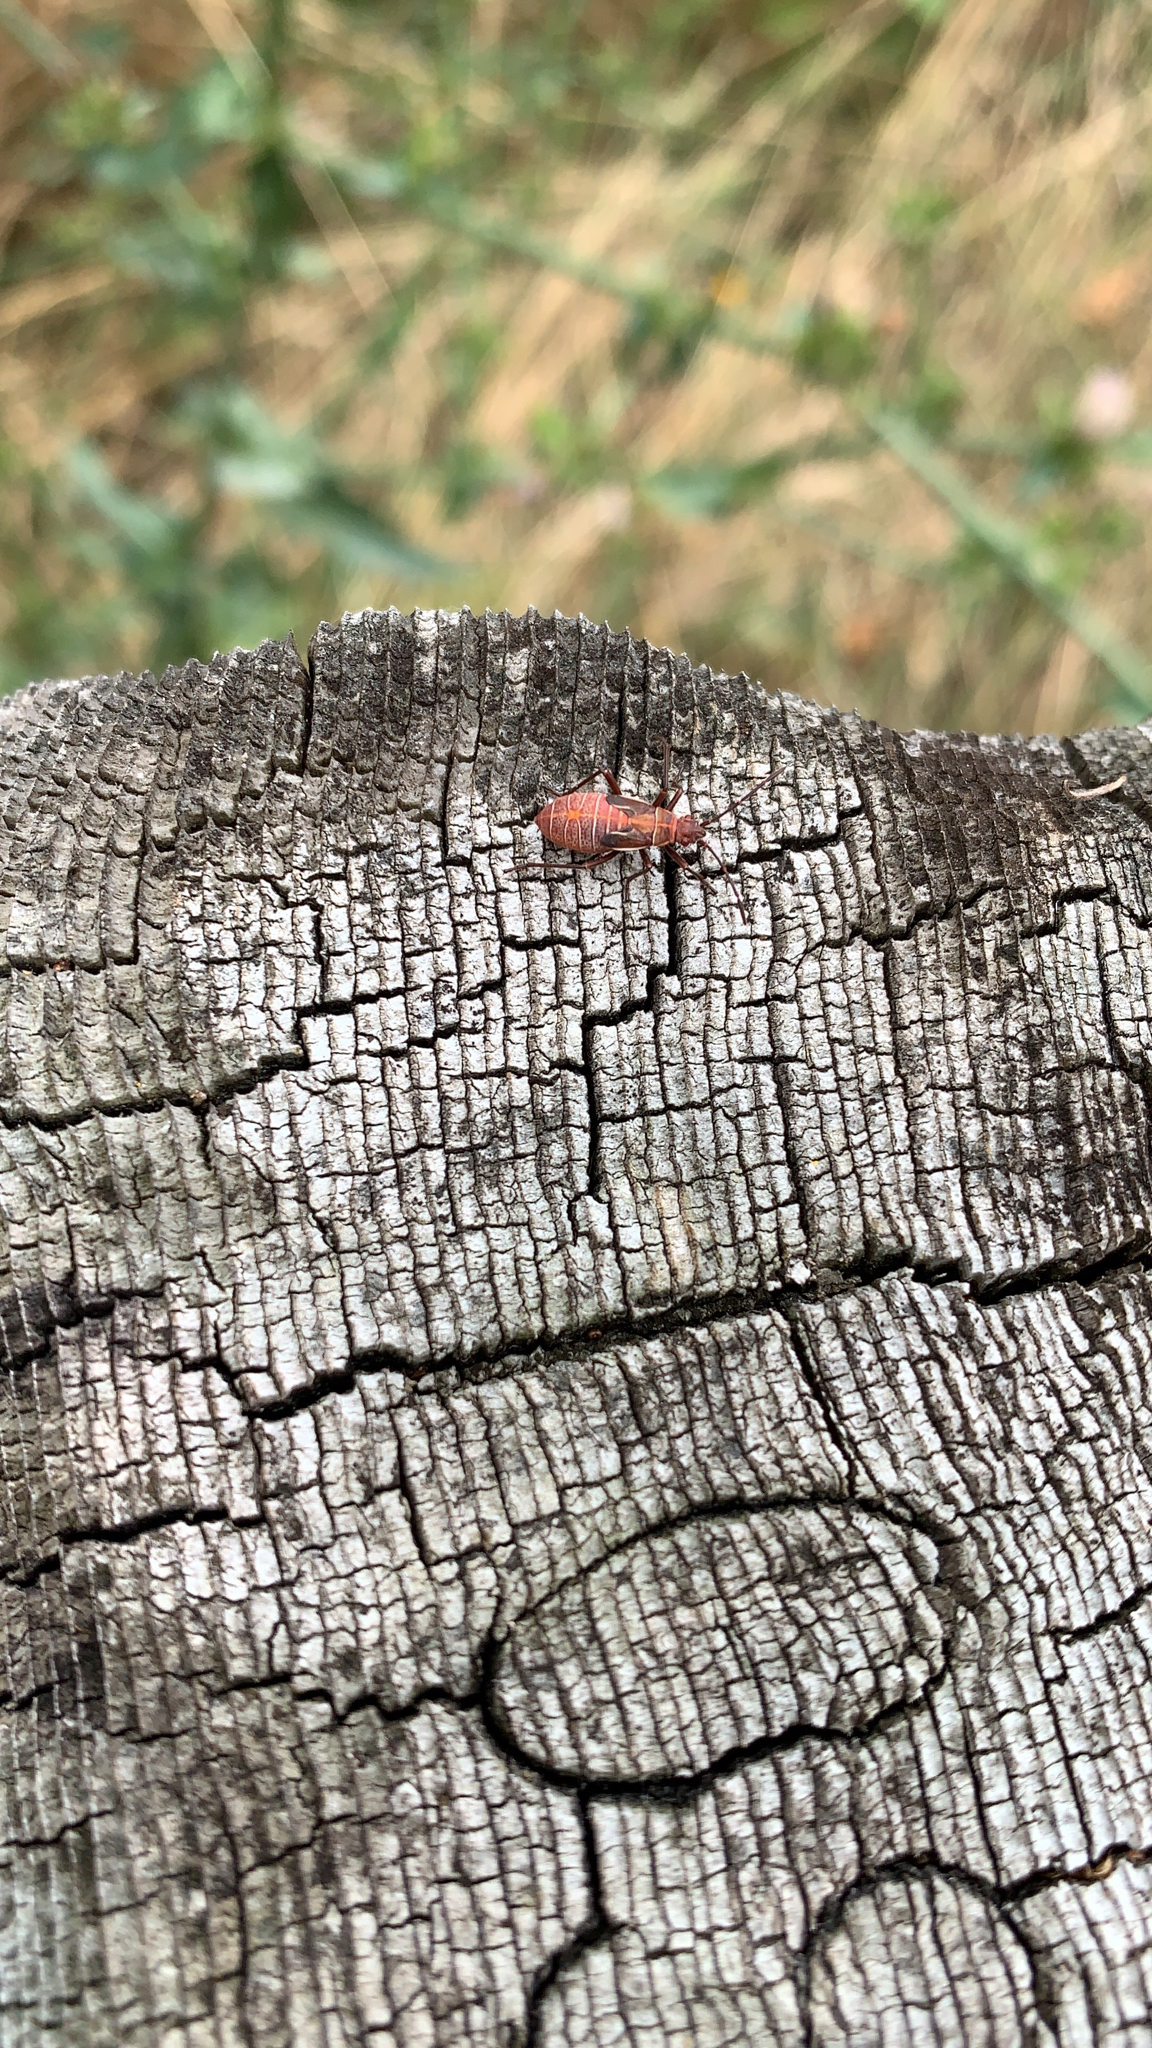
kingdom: Animalia
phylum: Arthropoda
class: Insecta
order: Hemiptera
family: Rhopalidae
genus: Boisea
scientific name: Boisea rubrolineata
